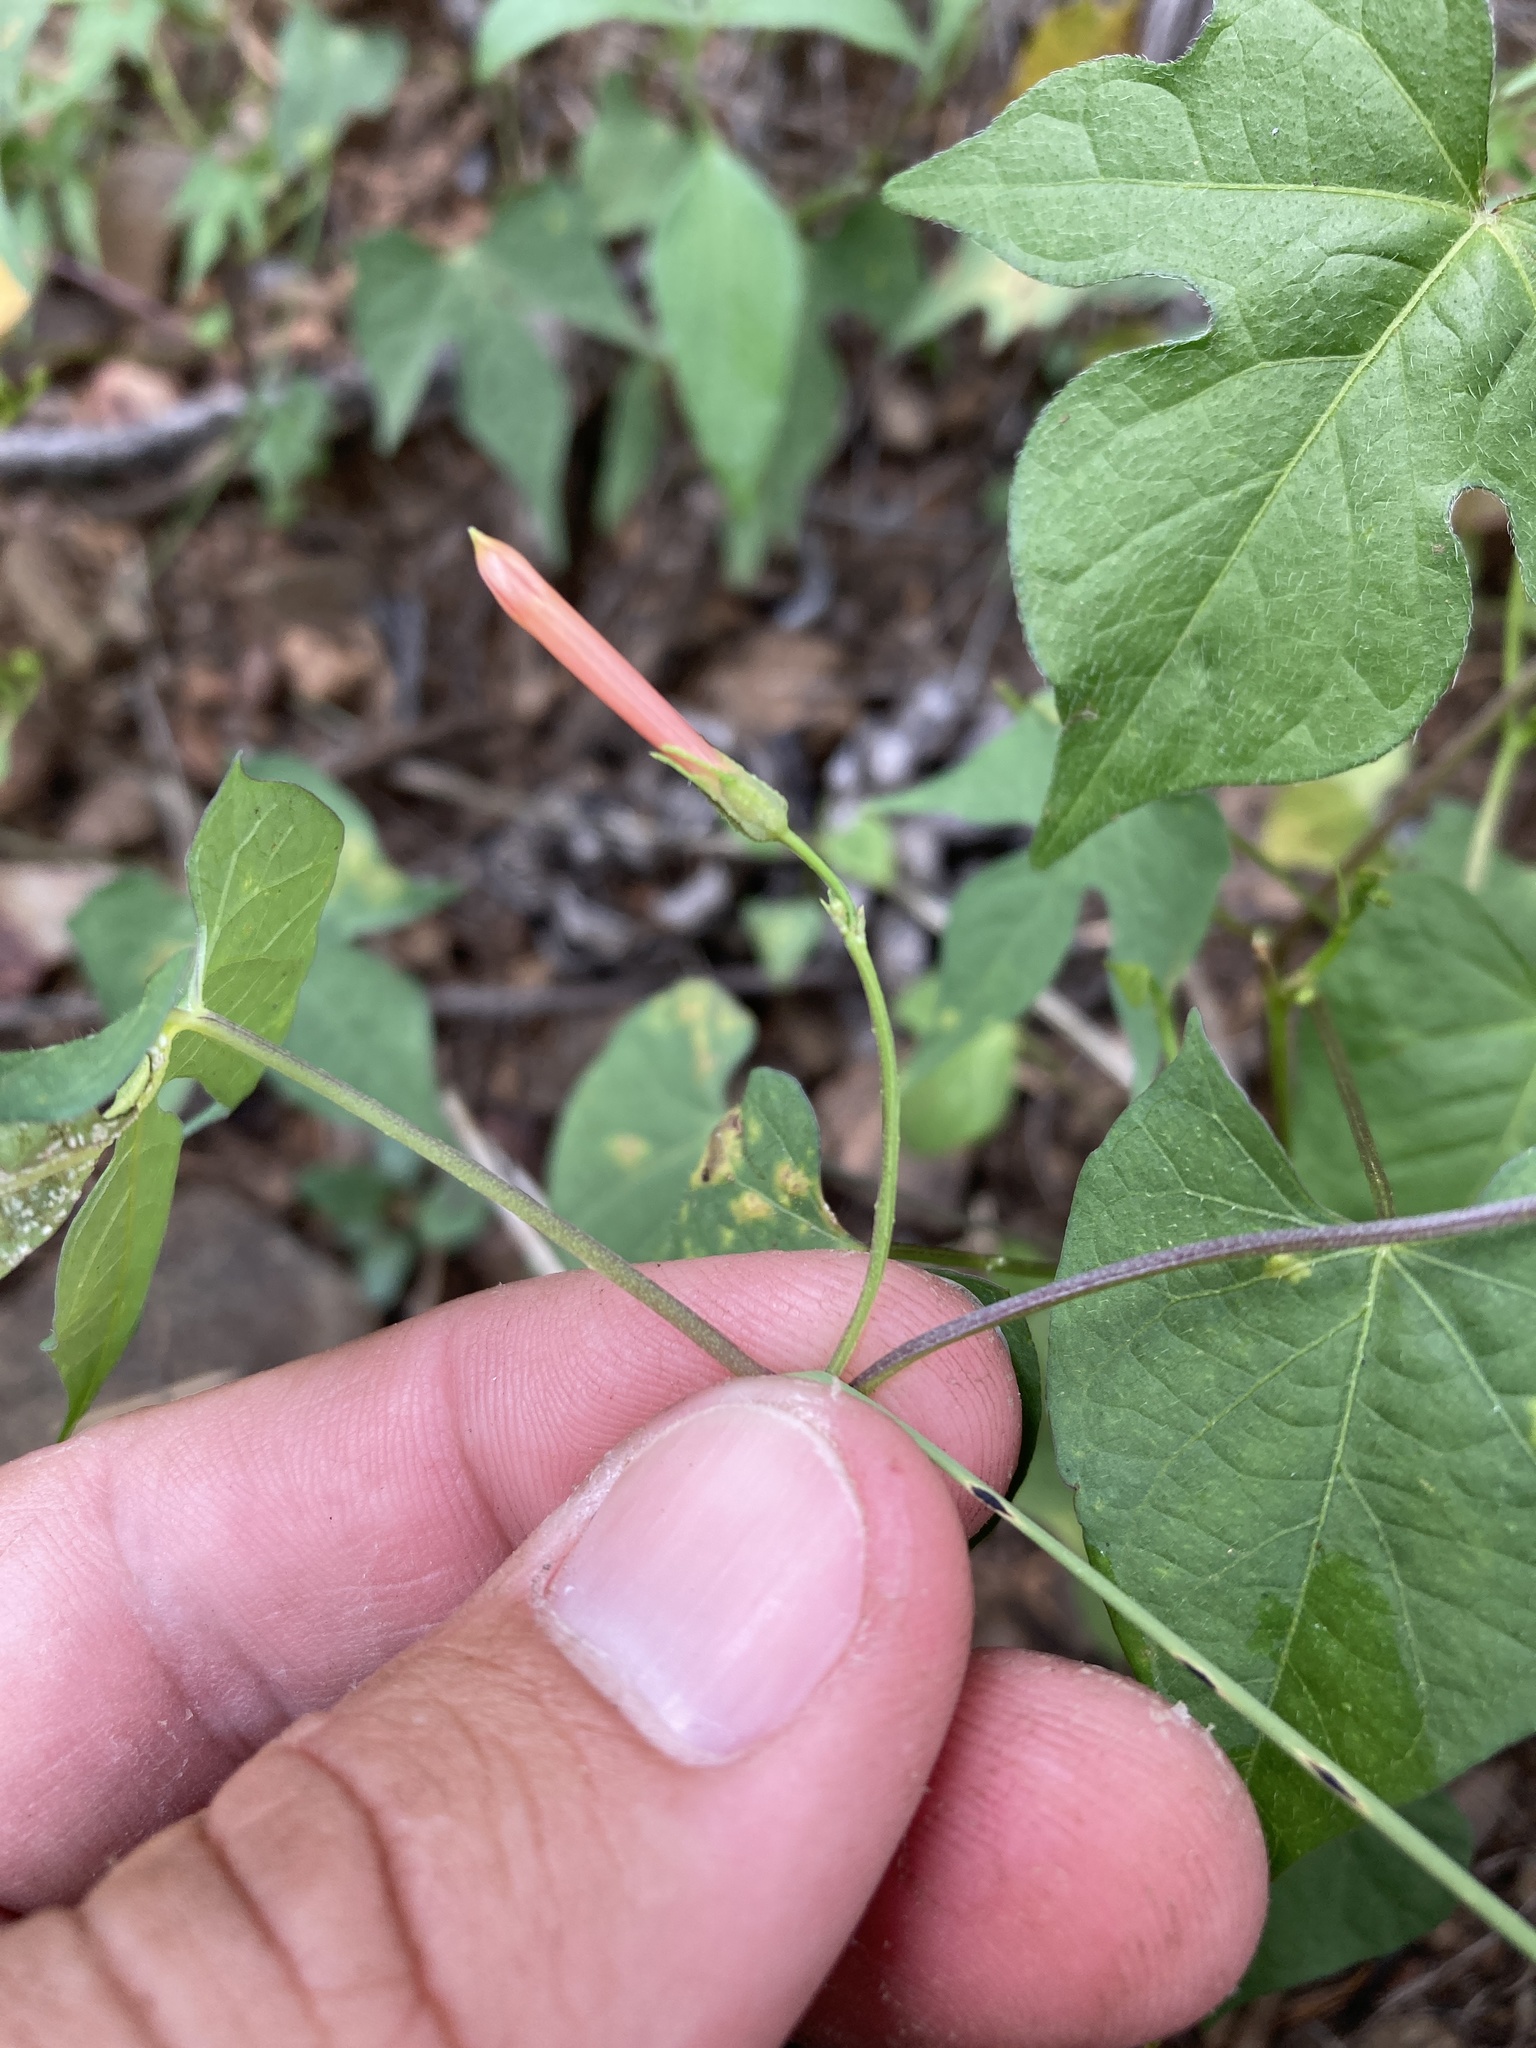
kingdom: Plantae
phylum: Tracheophyta
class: Magnoliopsida
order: Solanales
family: Convolvulaceae
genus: Ipomoea
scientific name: Ipomoea cristulata
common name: Trans-pecos morning-glory
